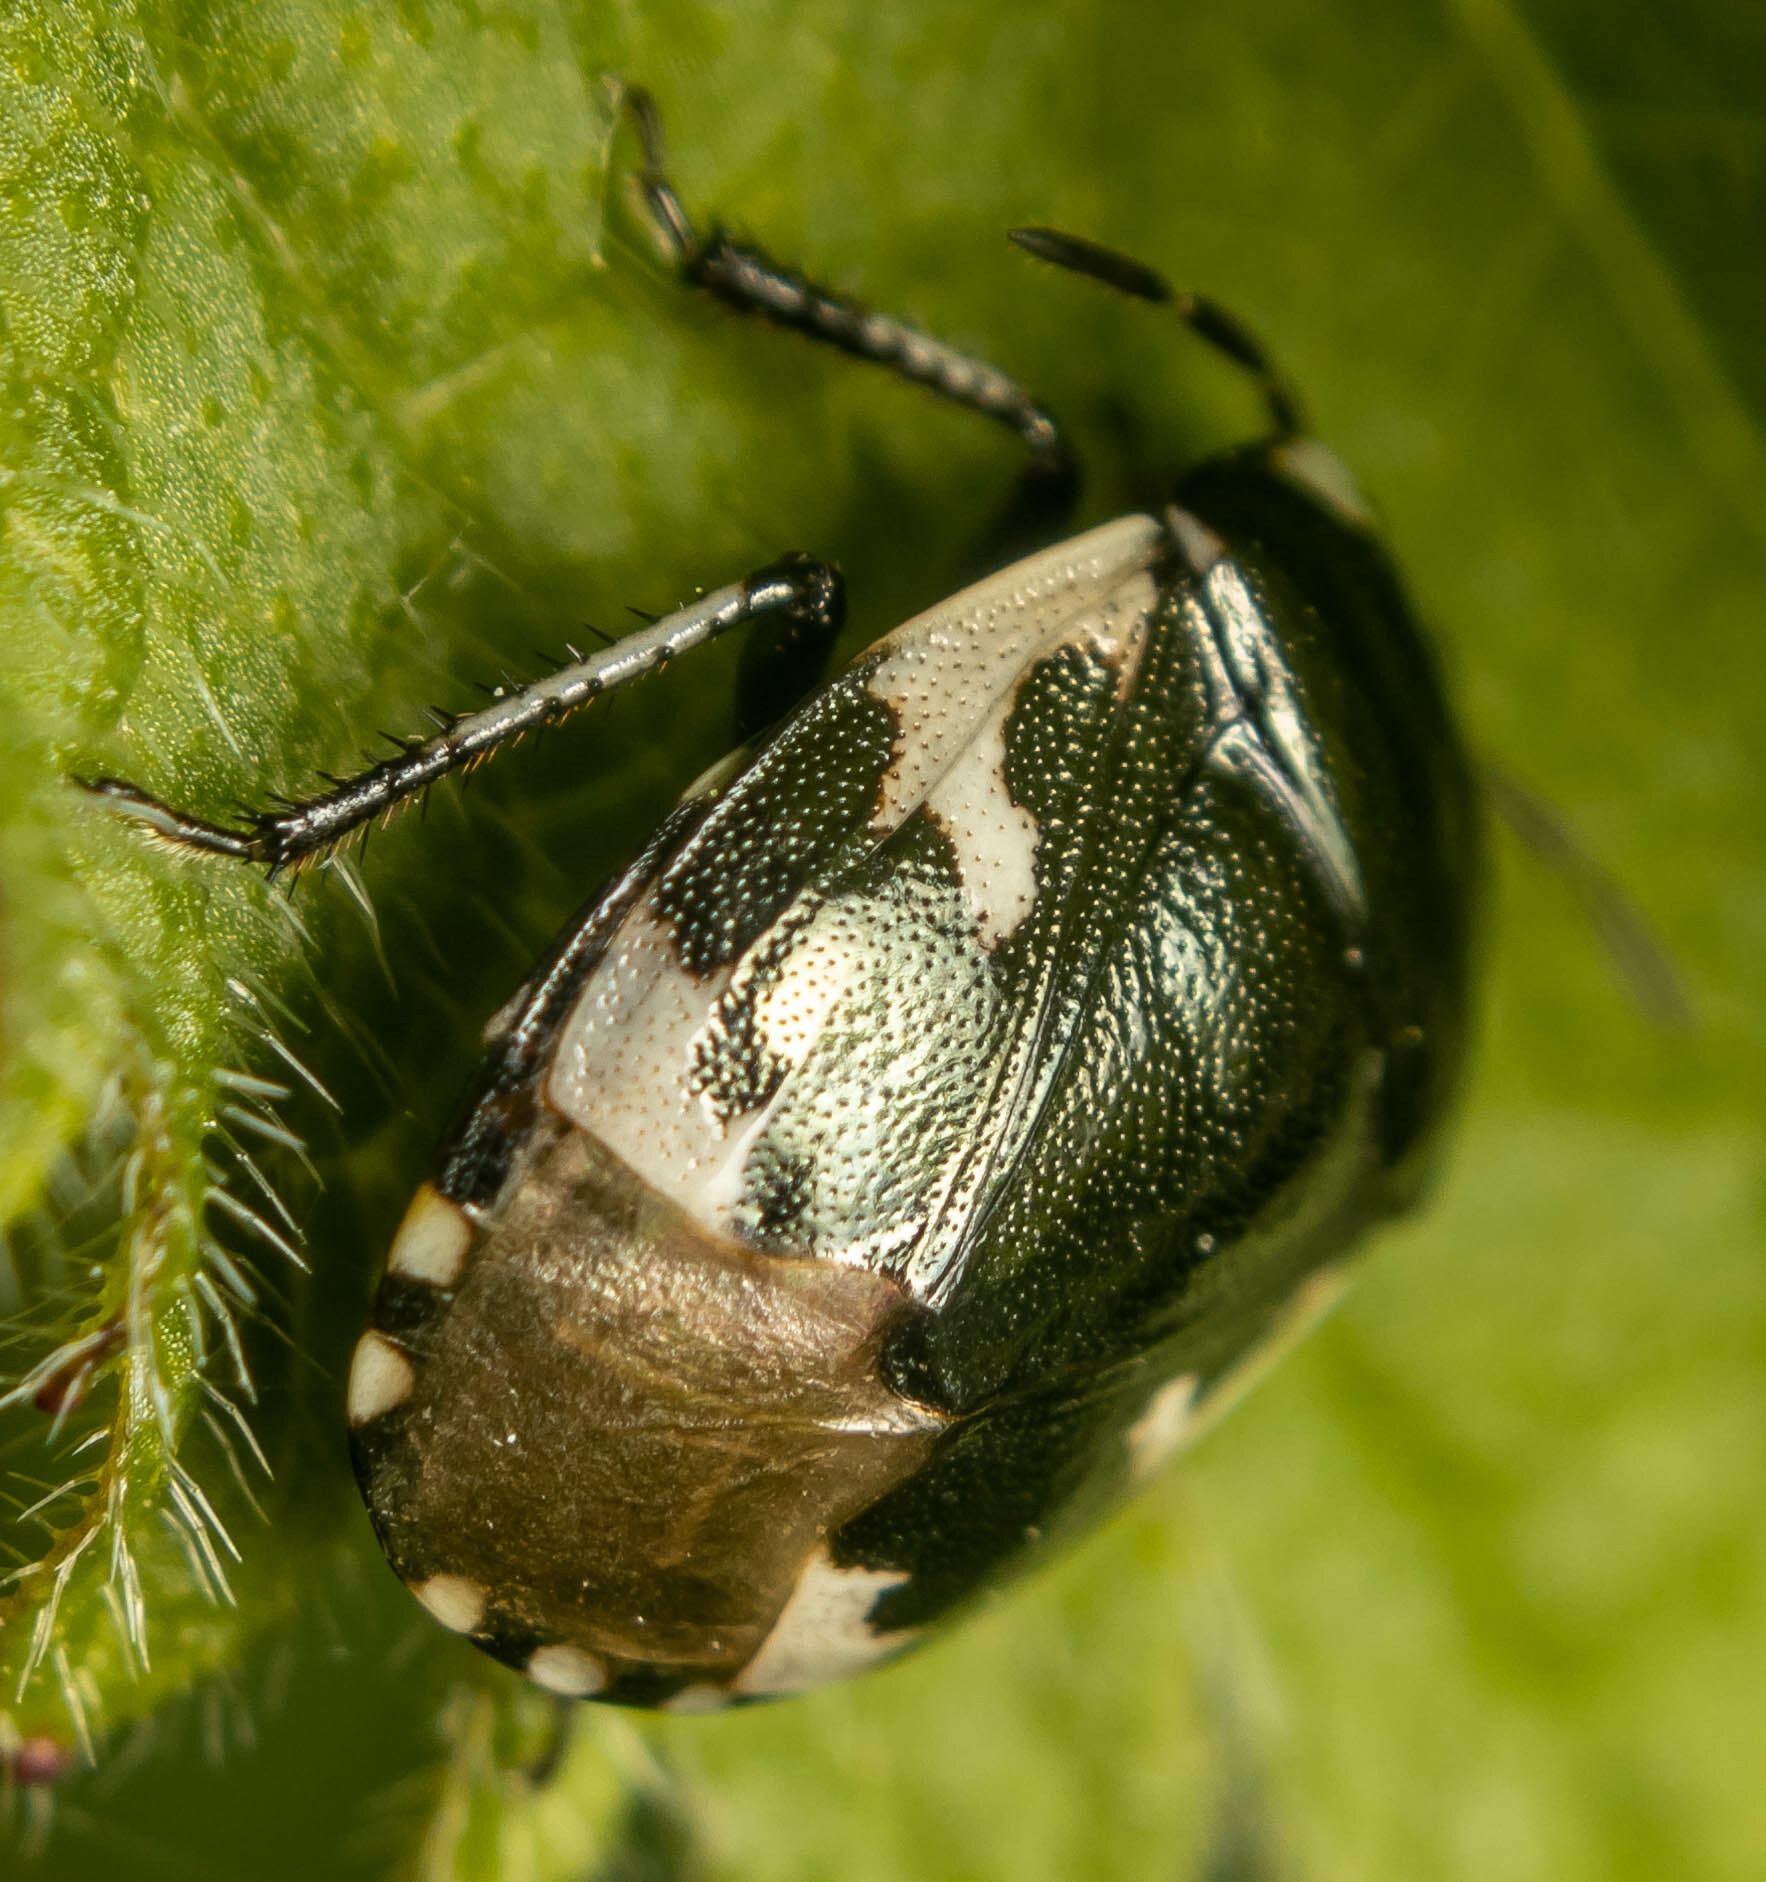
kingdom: Animalia
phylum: Arthropoda
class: Insecta
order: Hemiptera
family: Cydnidae
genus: Tritomegas
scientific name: Tritomegas bicolor
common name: Pied shieldbug
